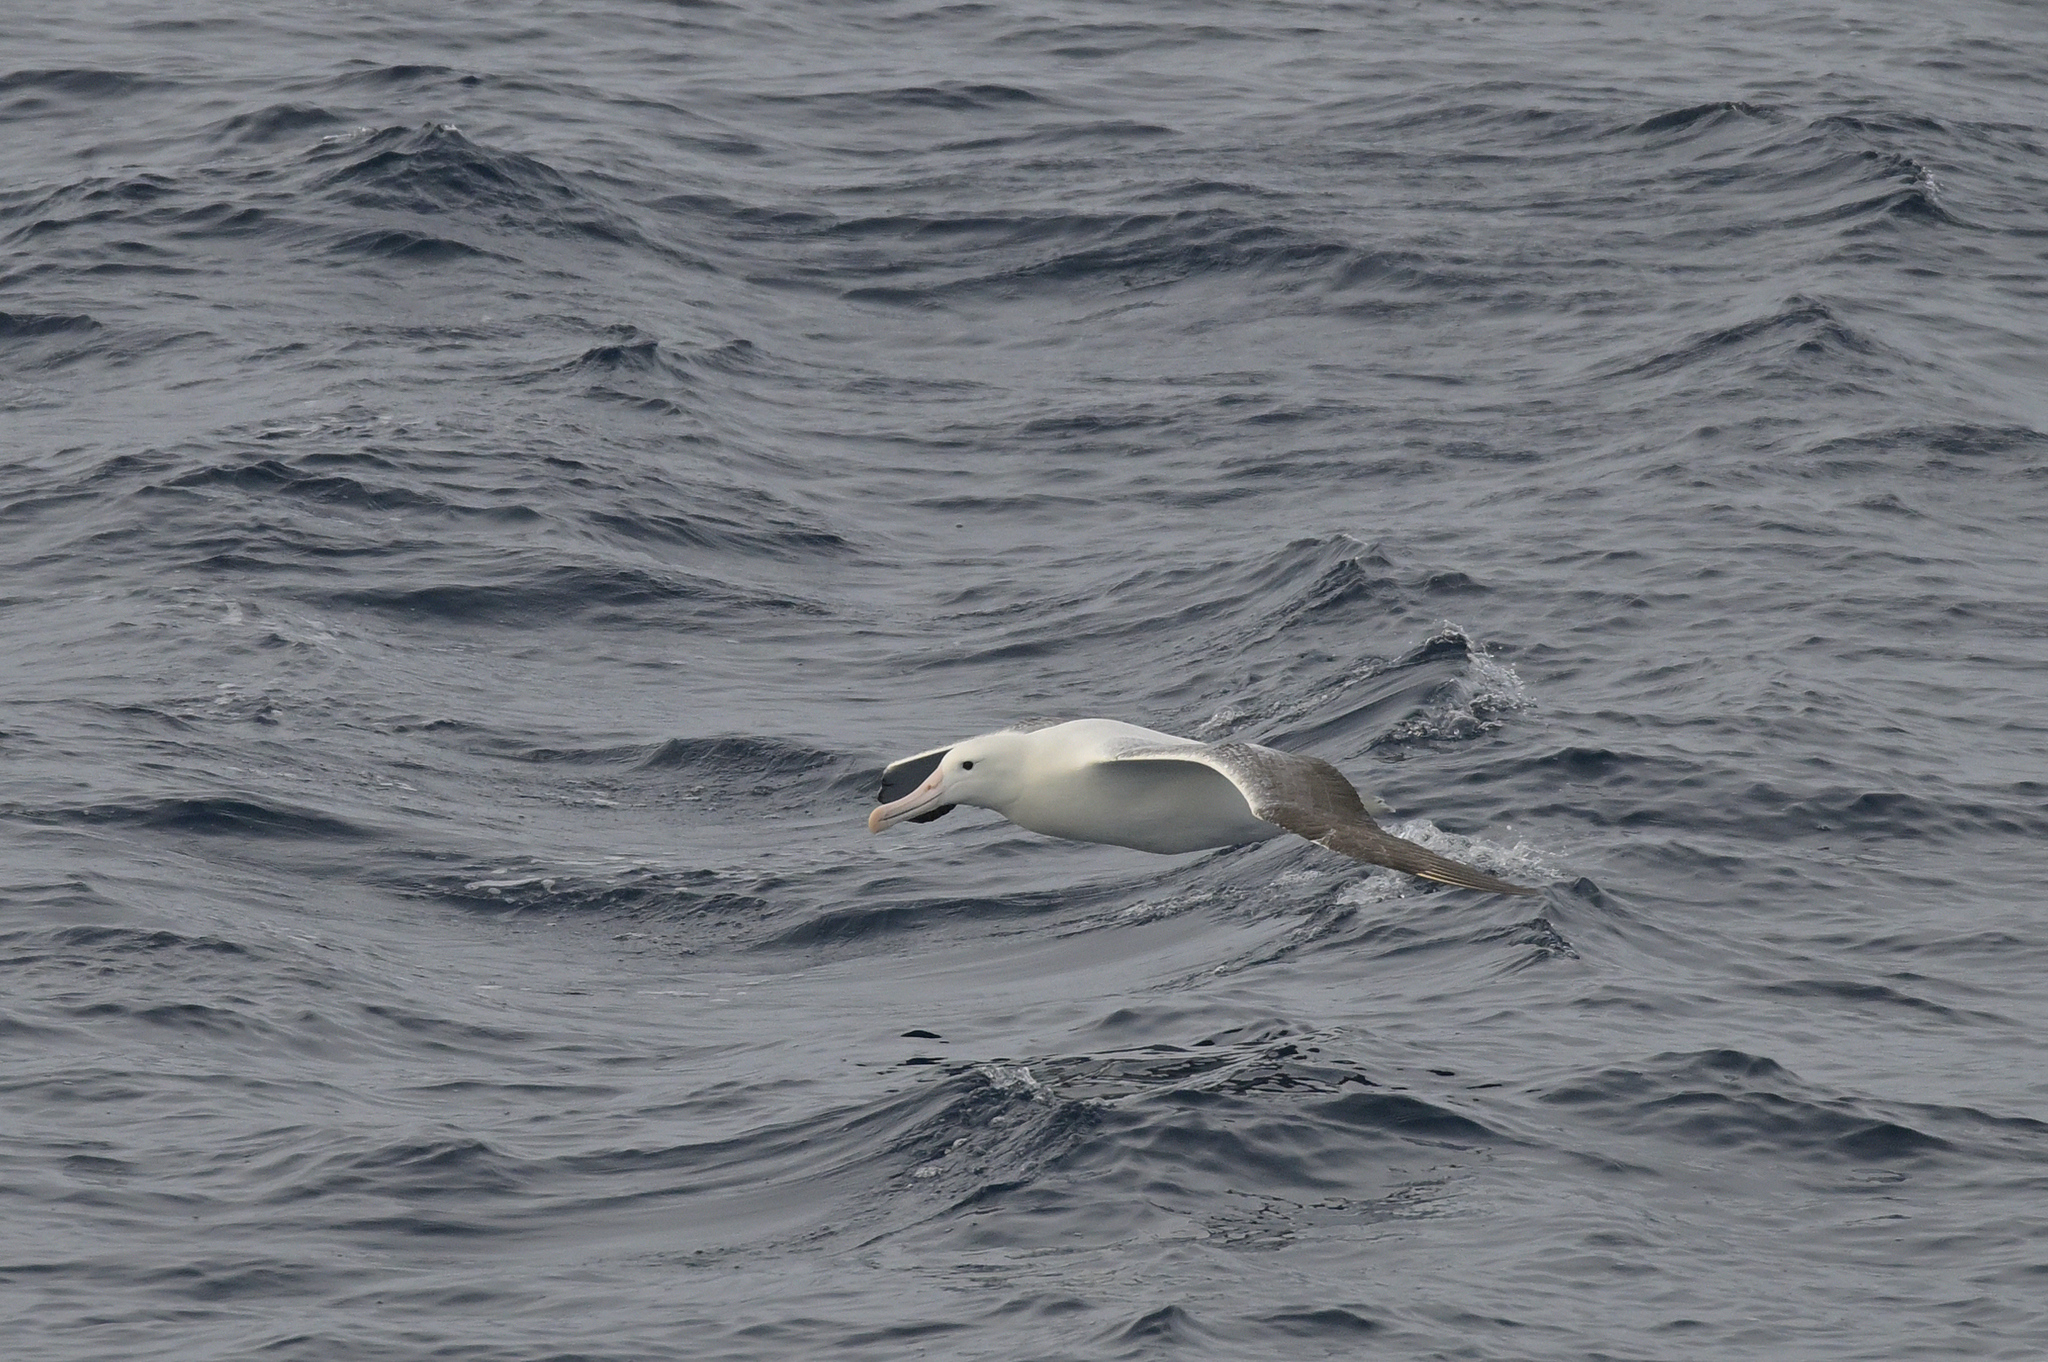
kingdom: Animalia
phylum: Chordata
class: Aves
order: Procellariiformes
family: Diomedeidae
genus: Diomedea
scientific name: Diomedea epomophora
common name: Southern royal albatross
